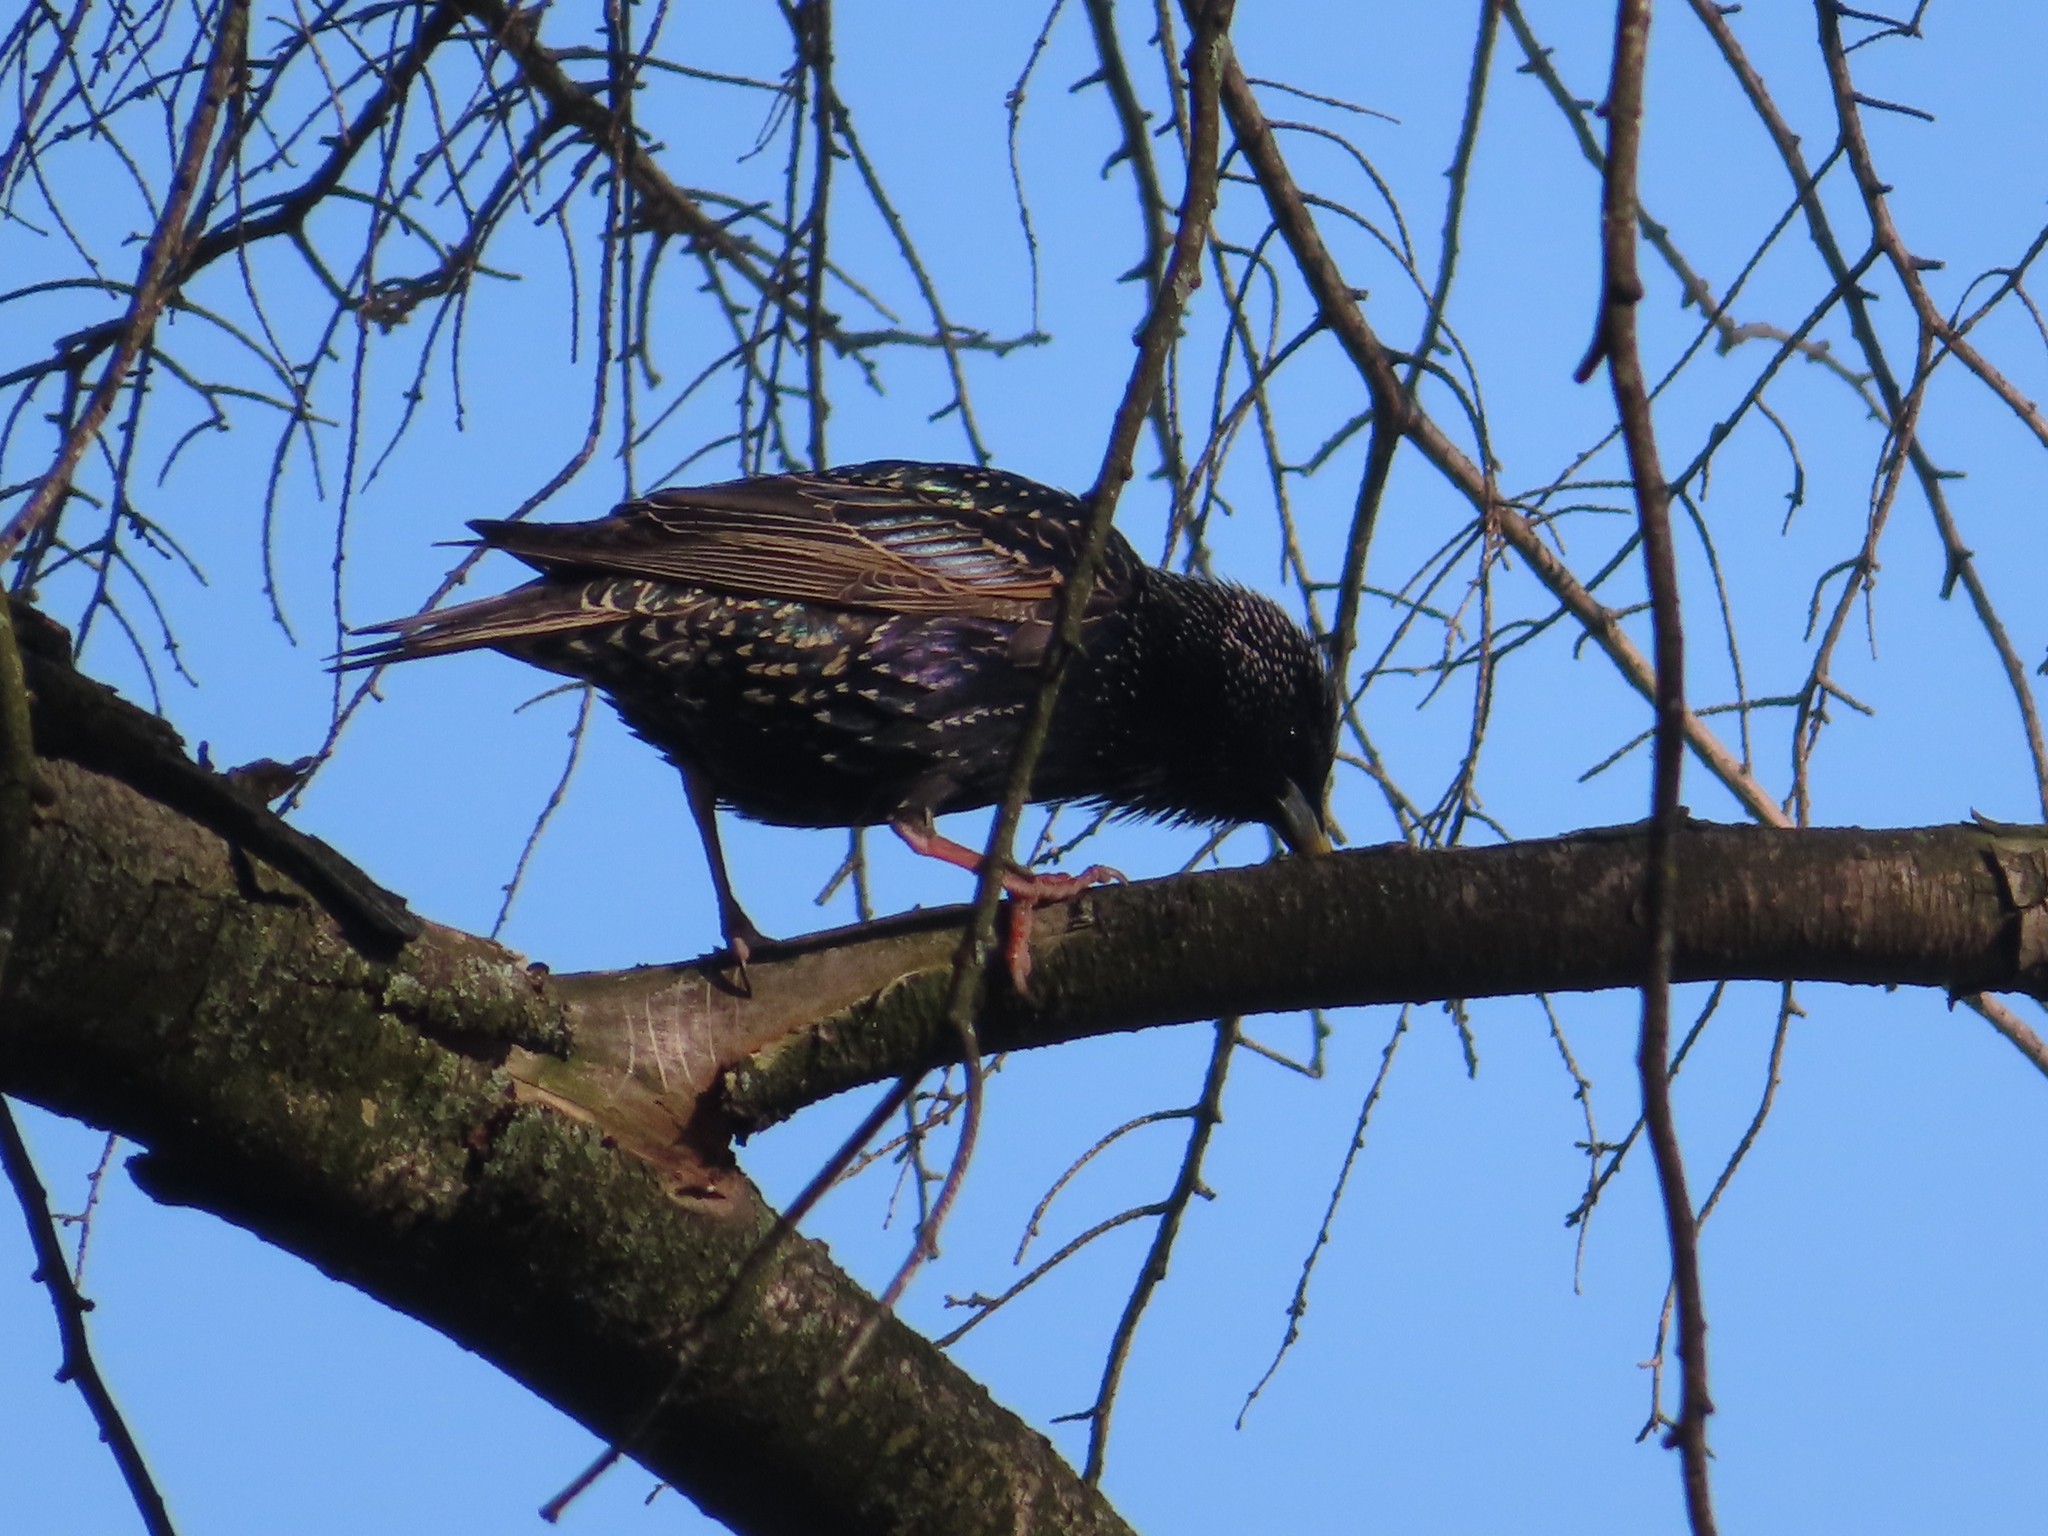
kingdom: Animalia
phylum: Chordata
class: Aves
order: Passeriformes
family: Sturnidae
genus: Sturnus
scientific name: Sturnus vulgaris
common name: Common starling
